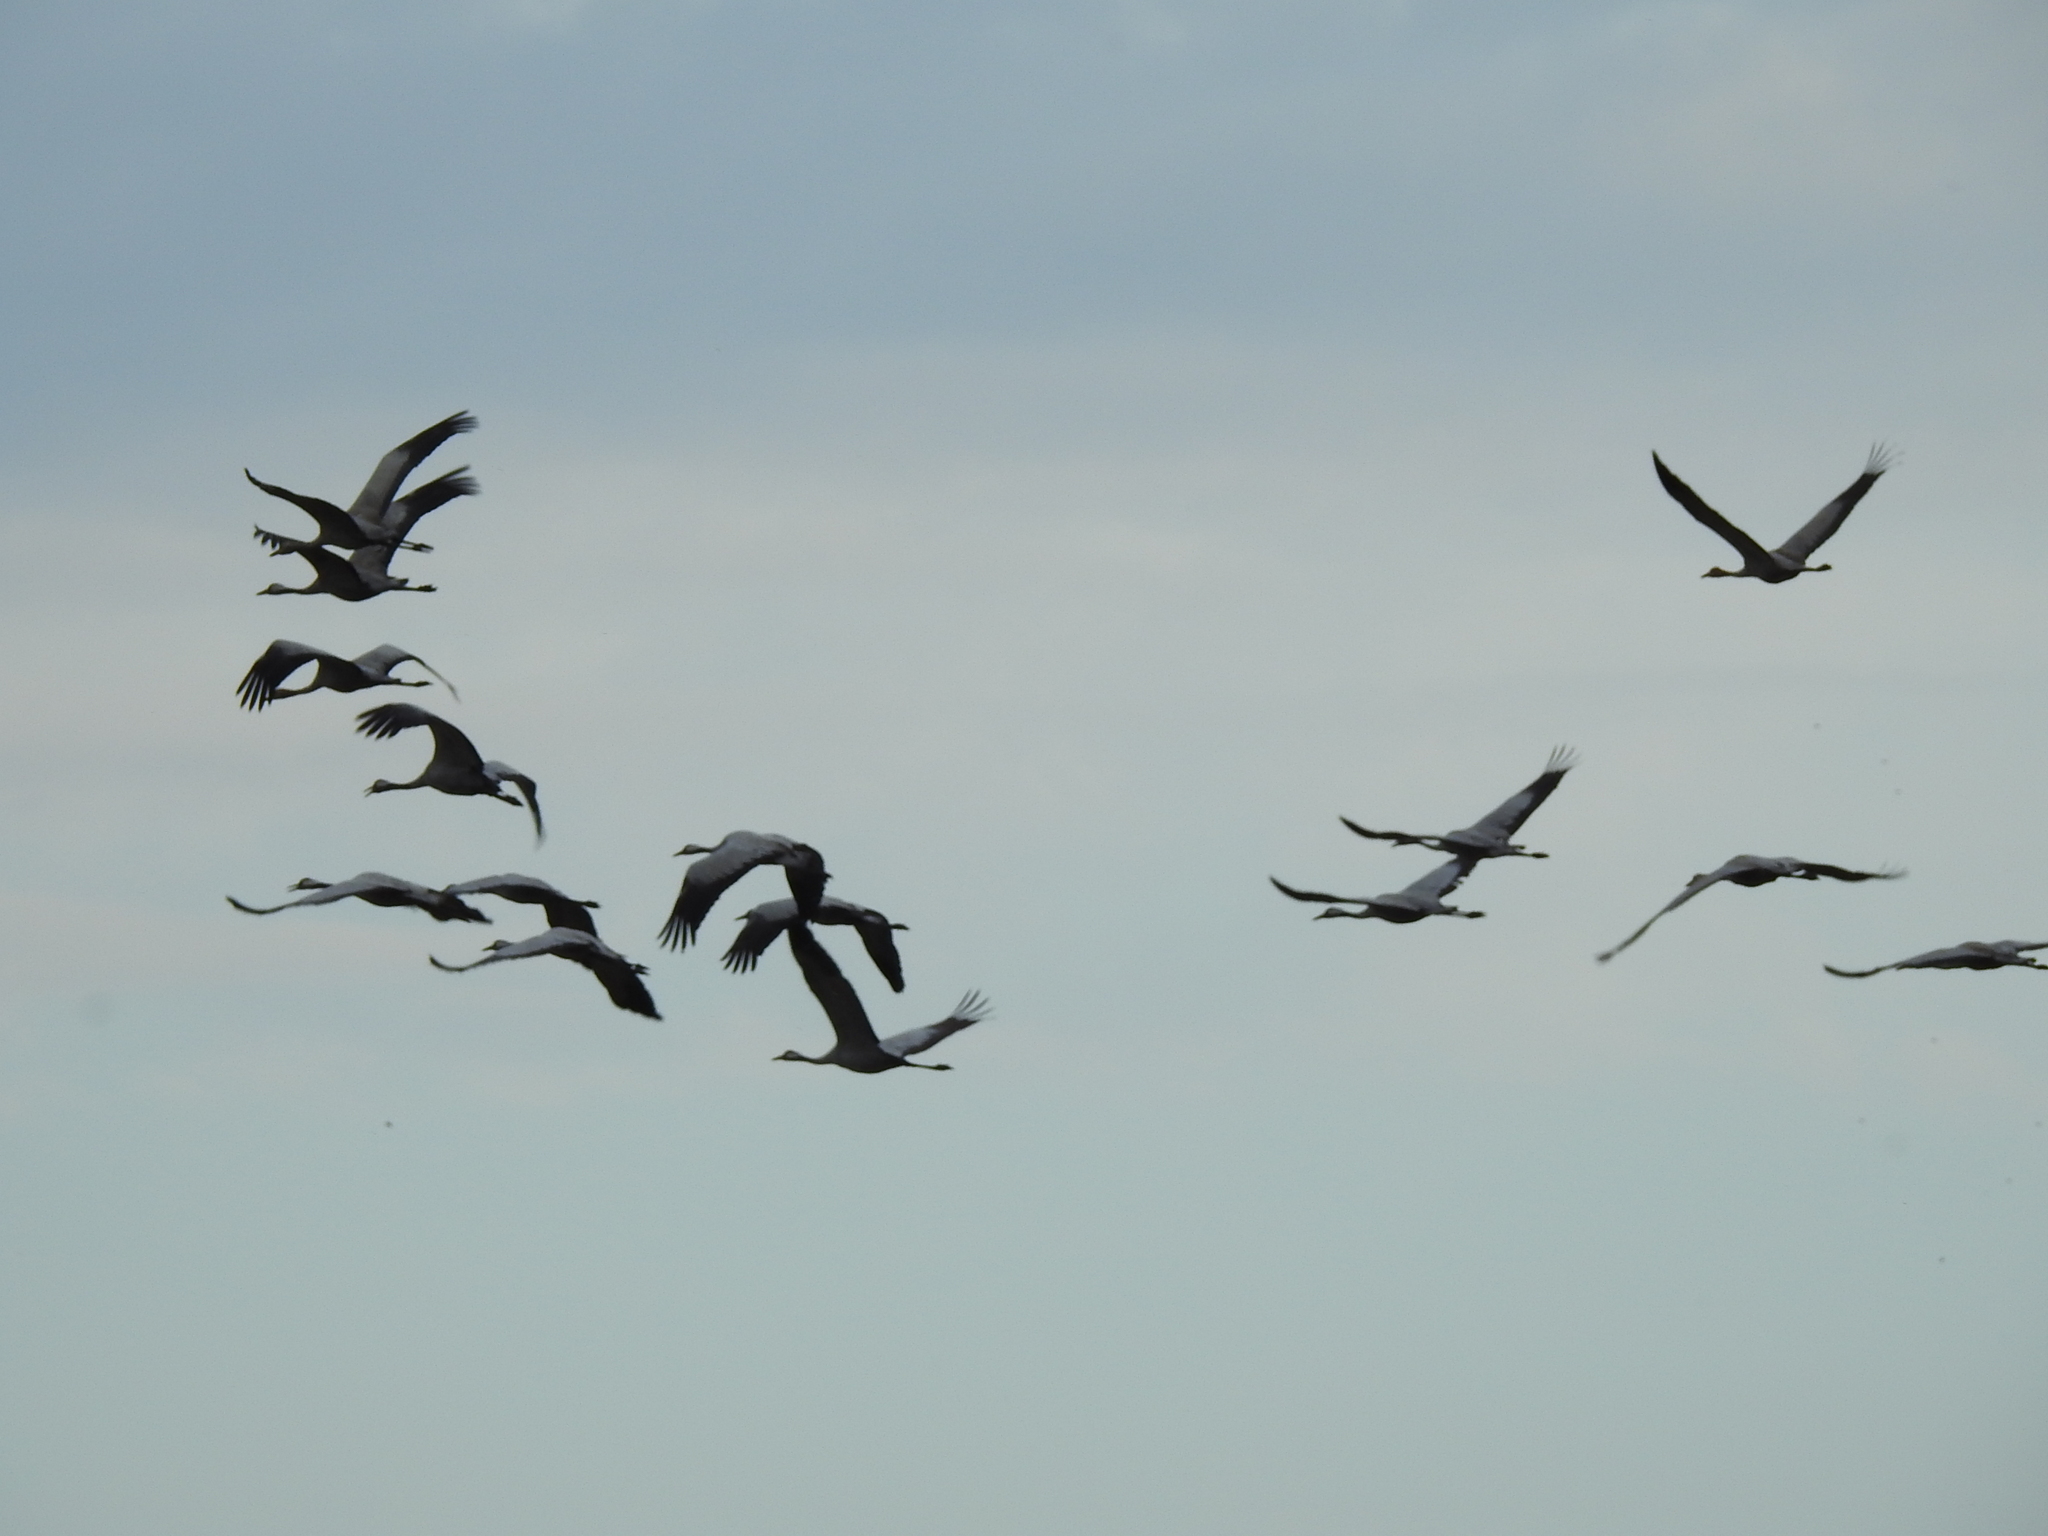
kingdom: Animalia
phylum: Chordata
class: Aves
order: Gruiformes
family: Gruidae
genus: Grus
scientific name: Grus grus
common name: Common crane
